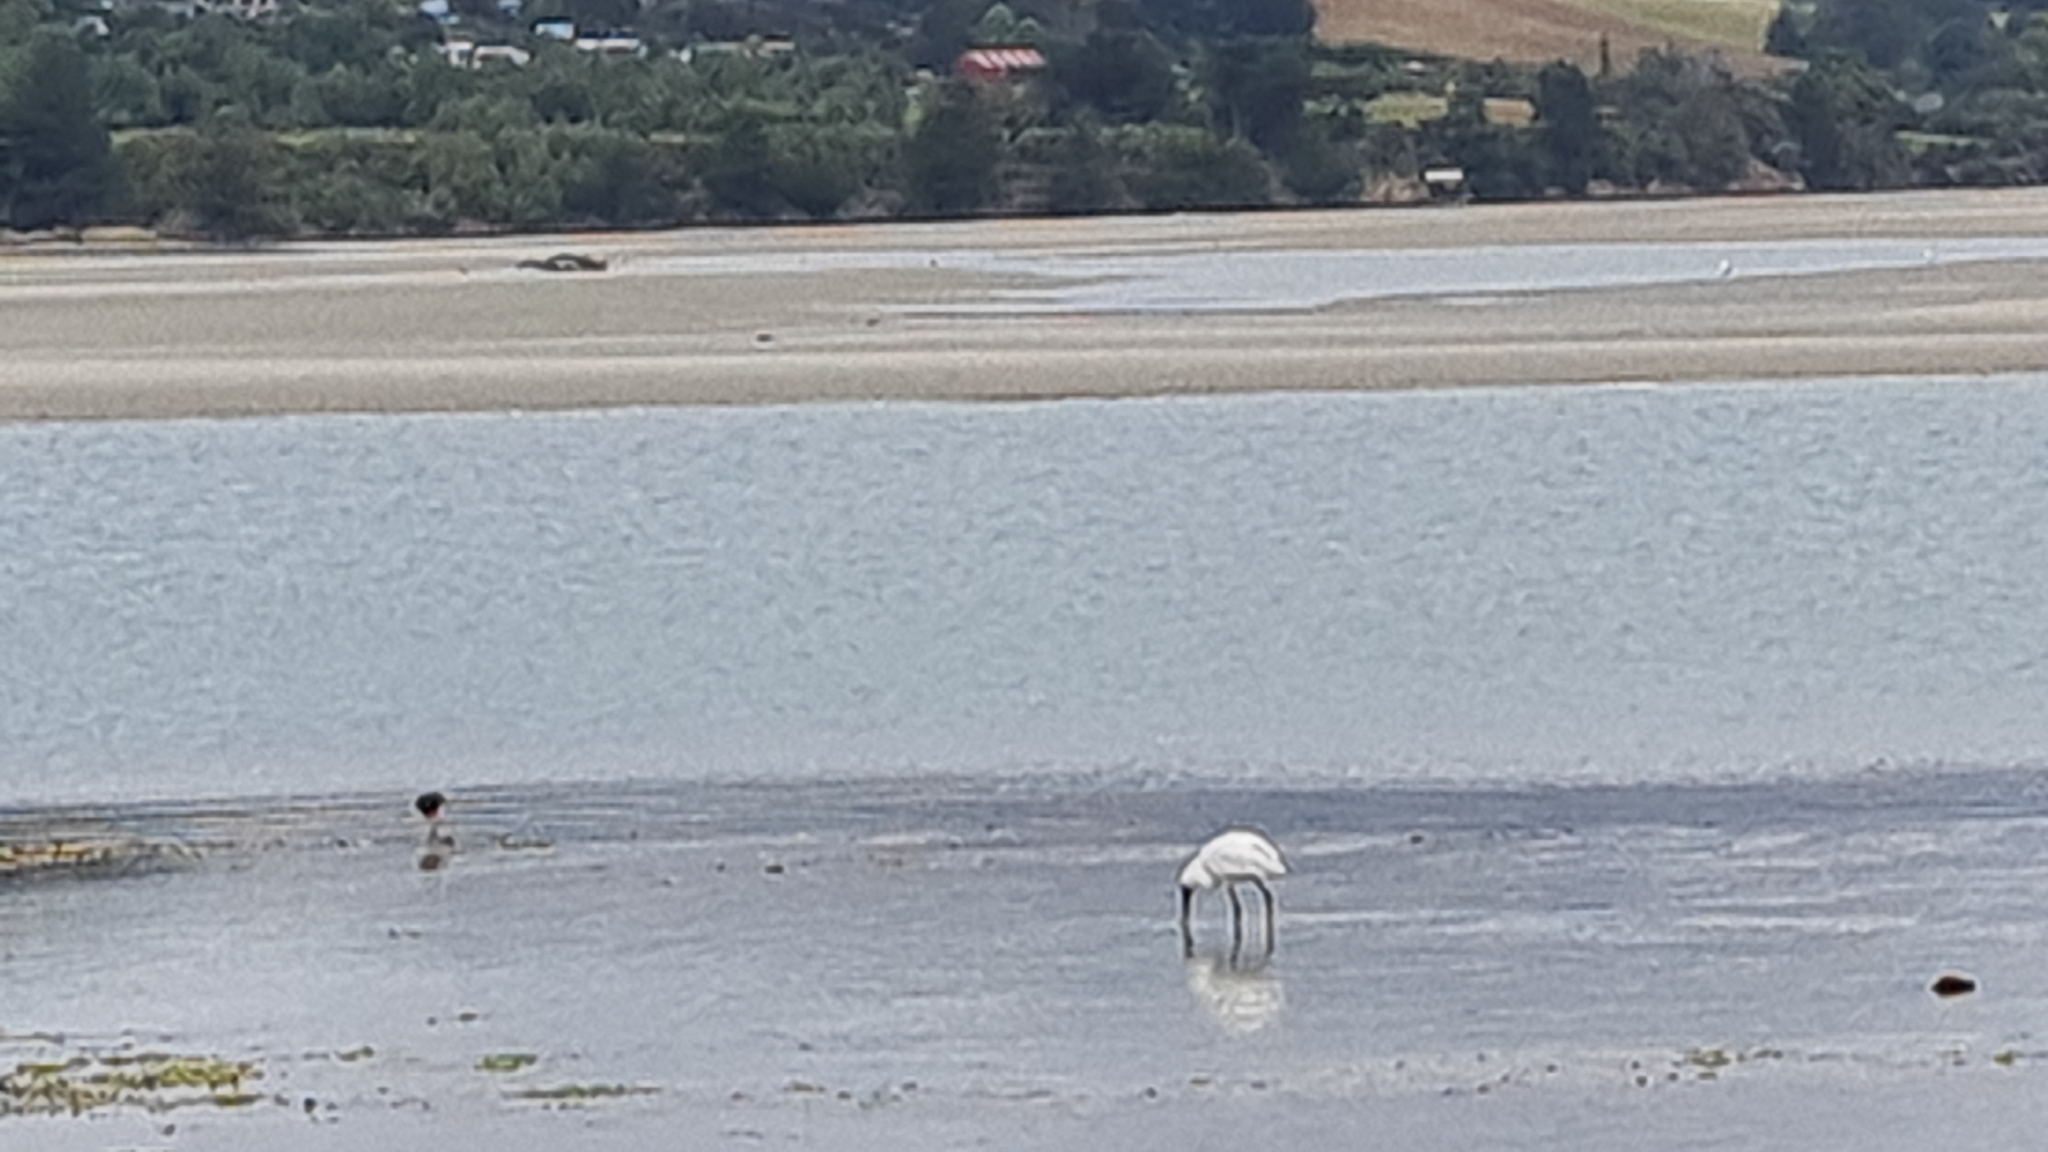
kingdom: Animalia
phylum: Chordata
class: Aves
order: Pelecaniformes
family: Threskiornithidae
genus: Platalea
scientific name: Platalea regia
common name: Royal spoonbill
